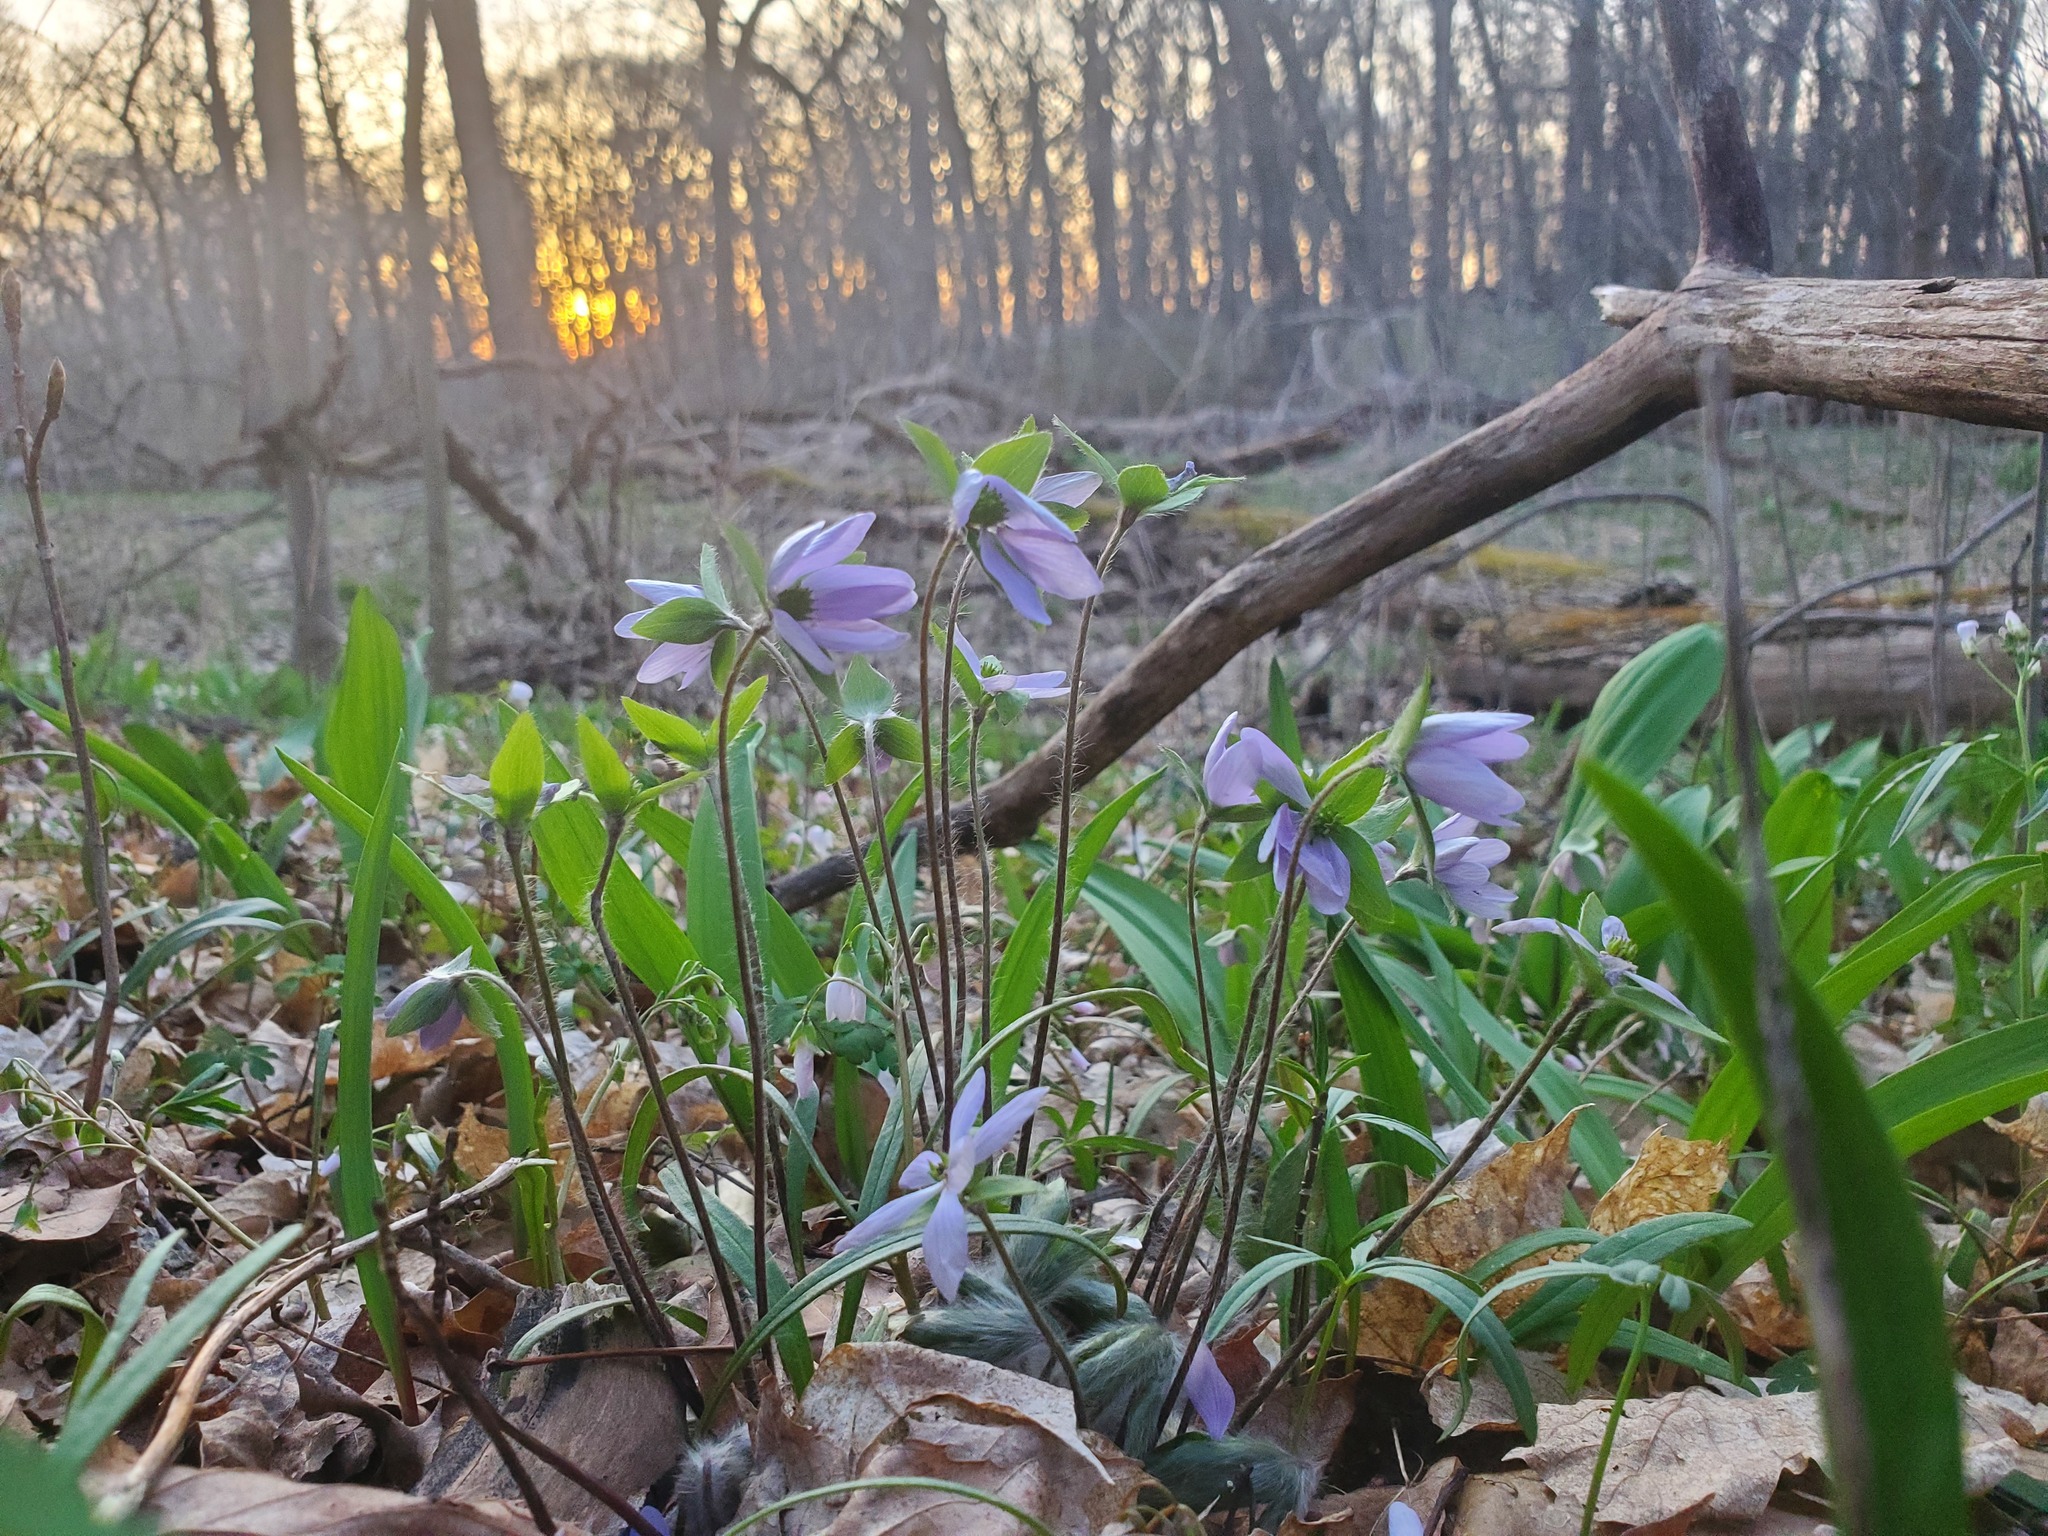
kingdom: Plantae
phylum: Tracheophyta
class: Magnoliopsida
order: Ranunculales
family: Ranunculaceae
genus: Hepatica
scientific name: Hepatica acutiloba
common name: Sharp-lobed hepatica
